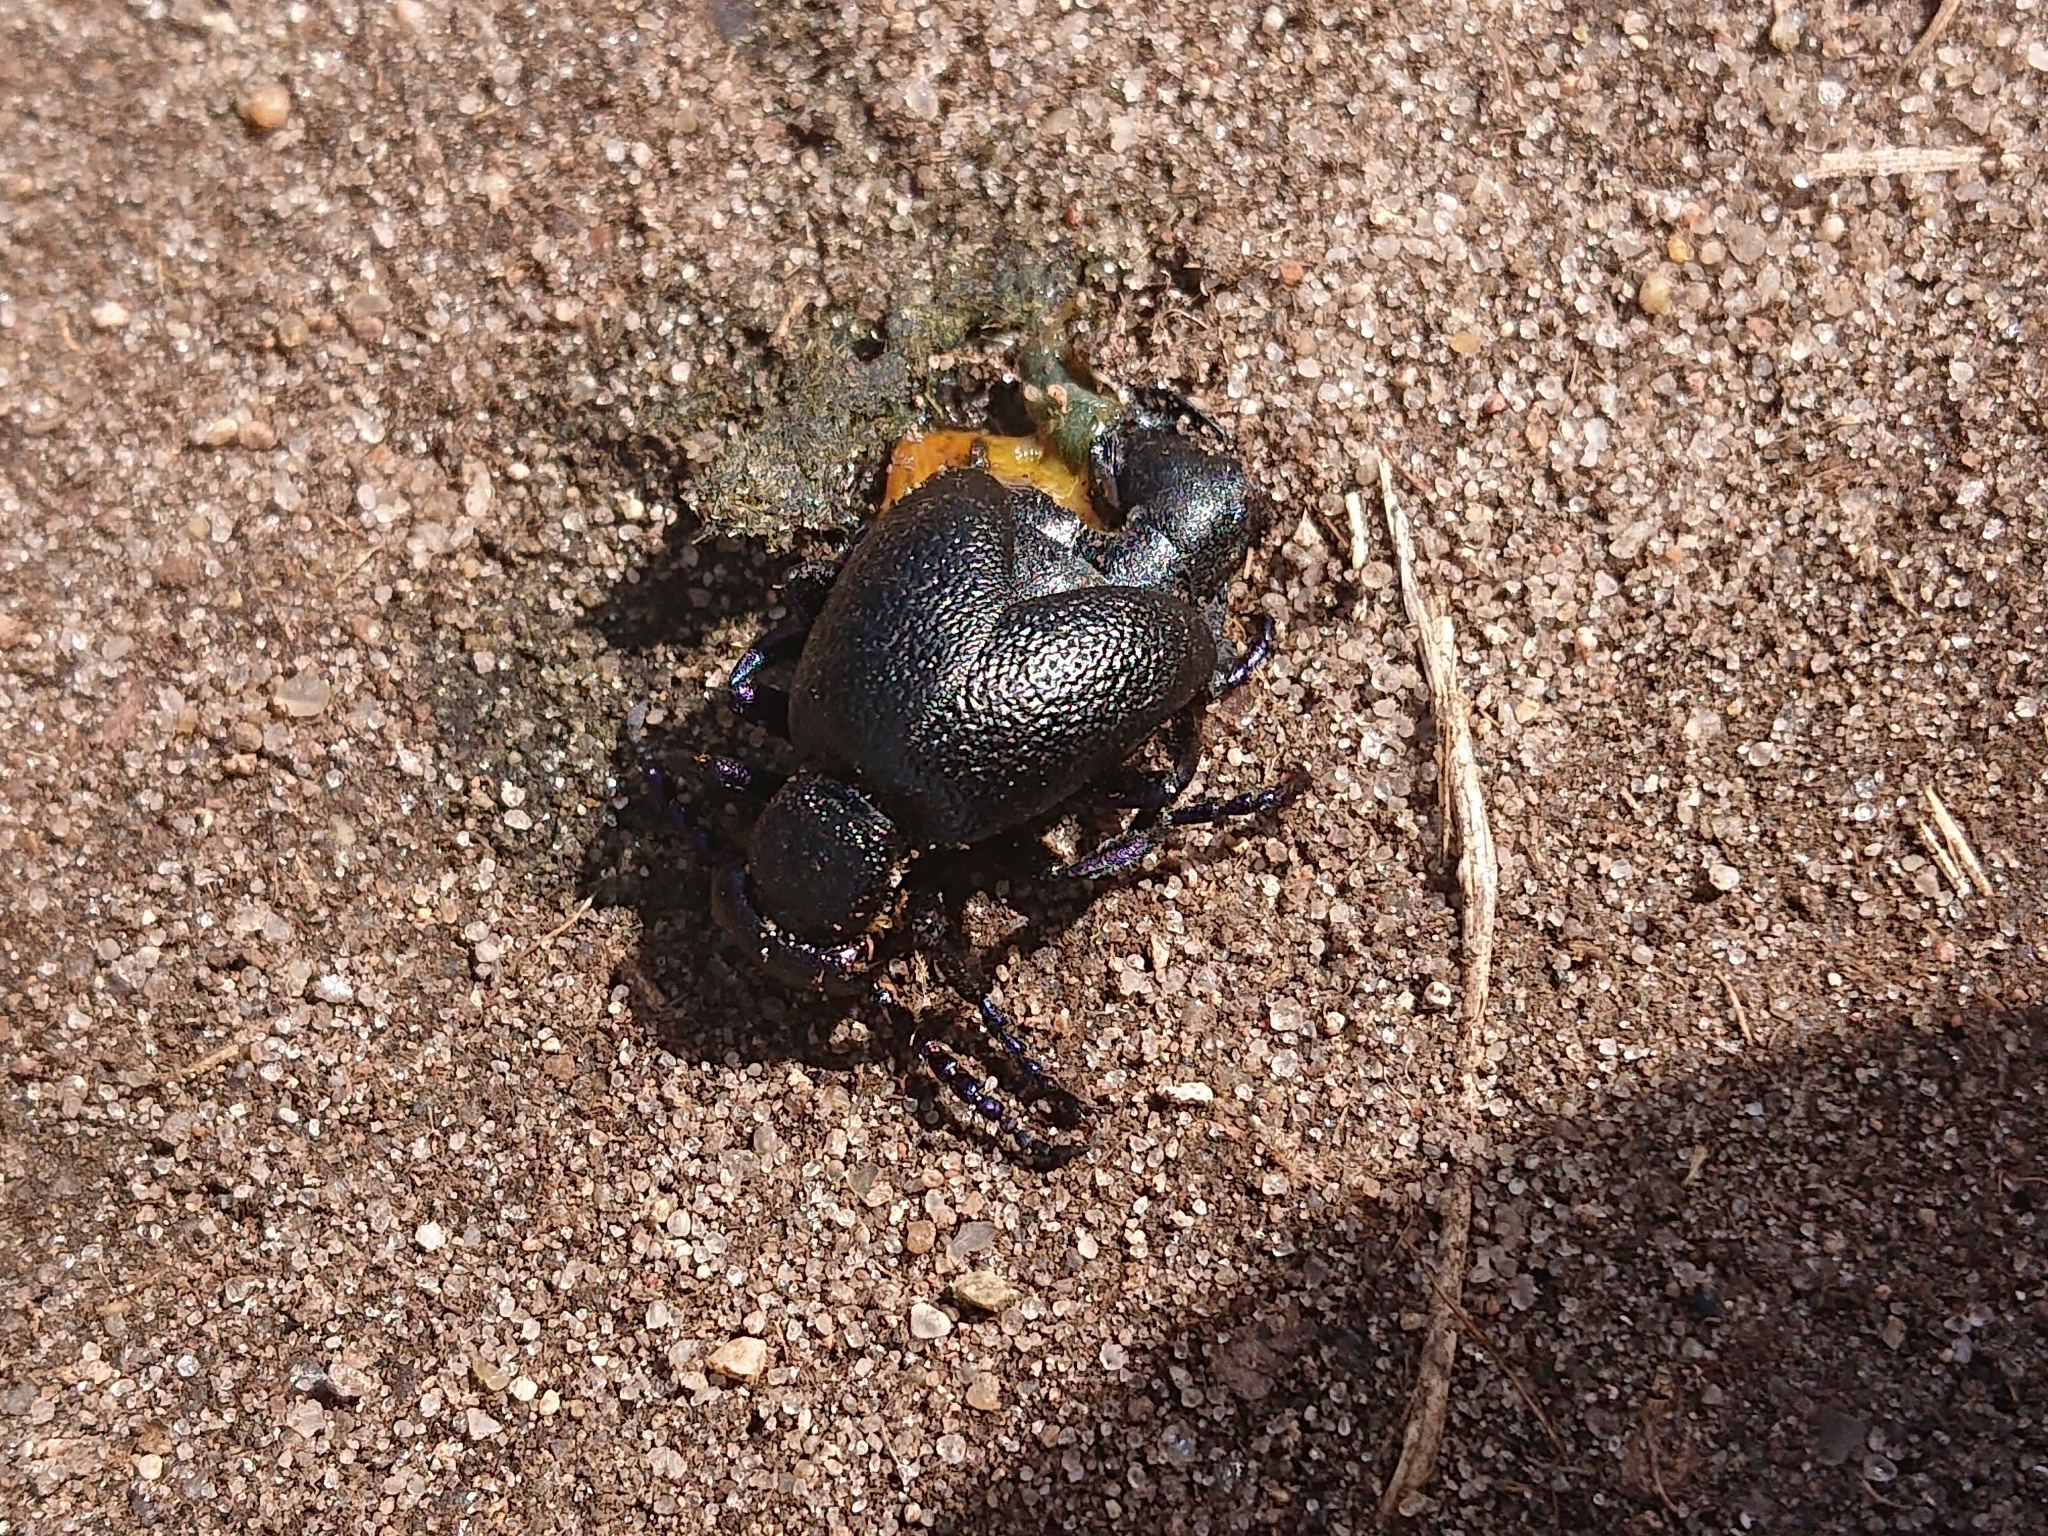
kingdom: Animalia
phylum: Arthropoda
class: Insecta
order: Coleoptera
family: Meloidae
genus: Meloe
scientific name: Meloe proscarabaeus
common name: Black oil-beetle
